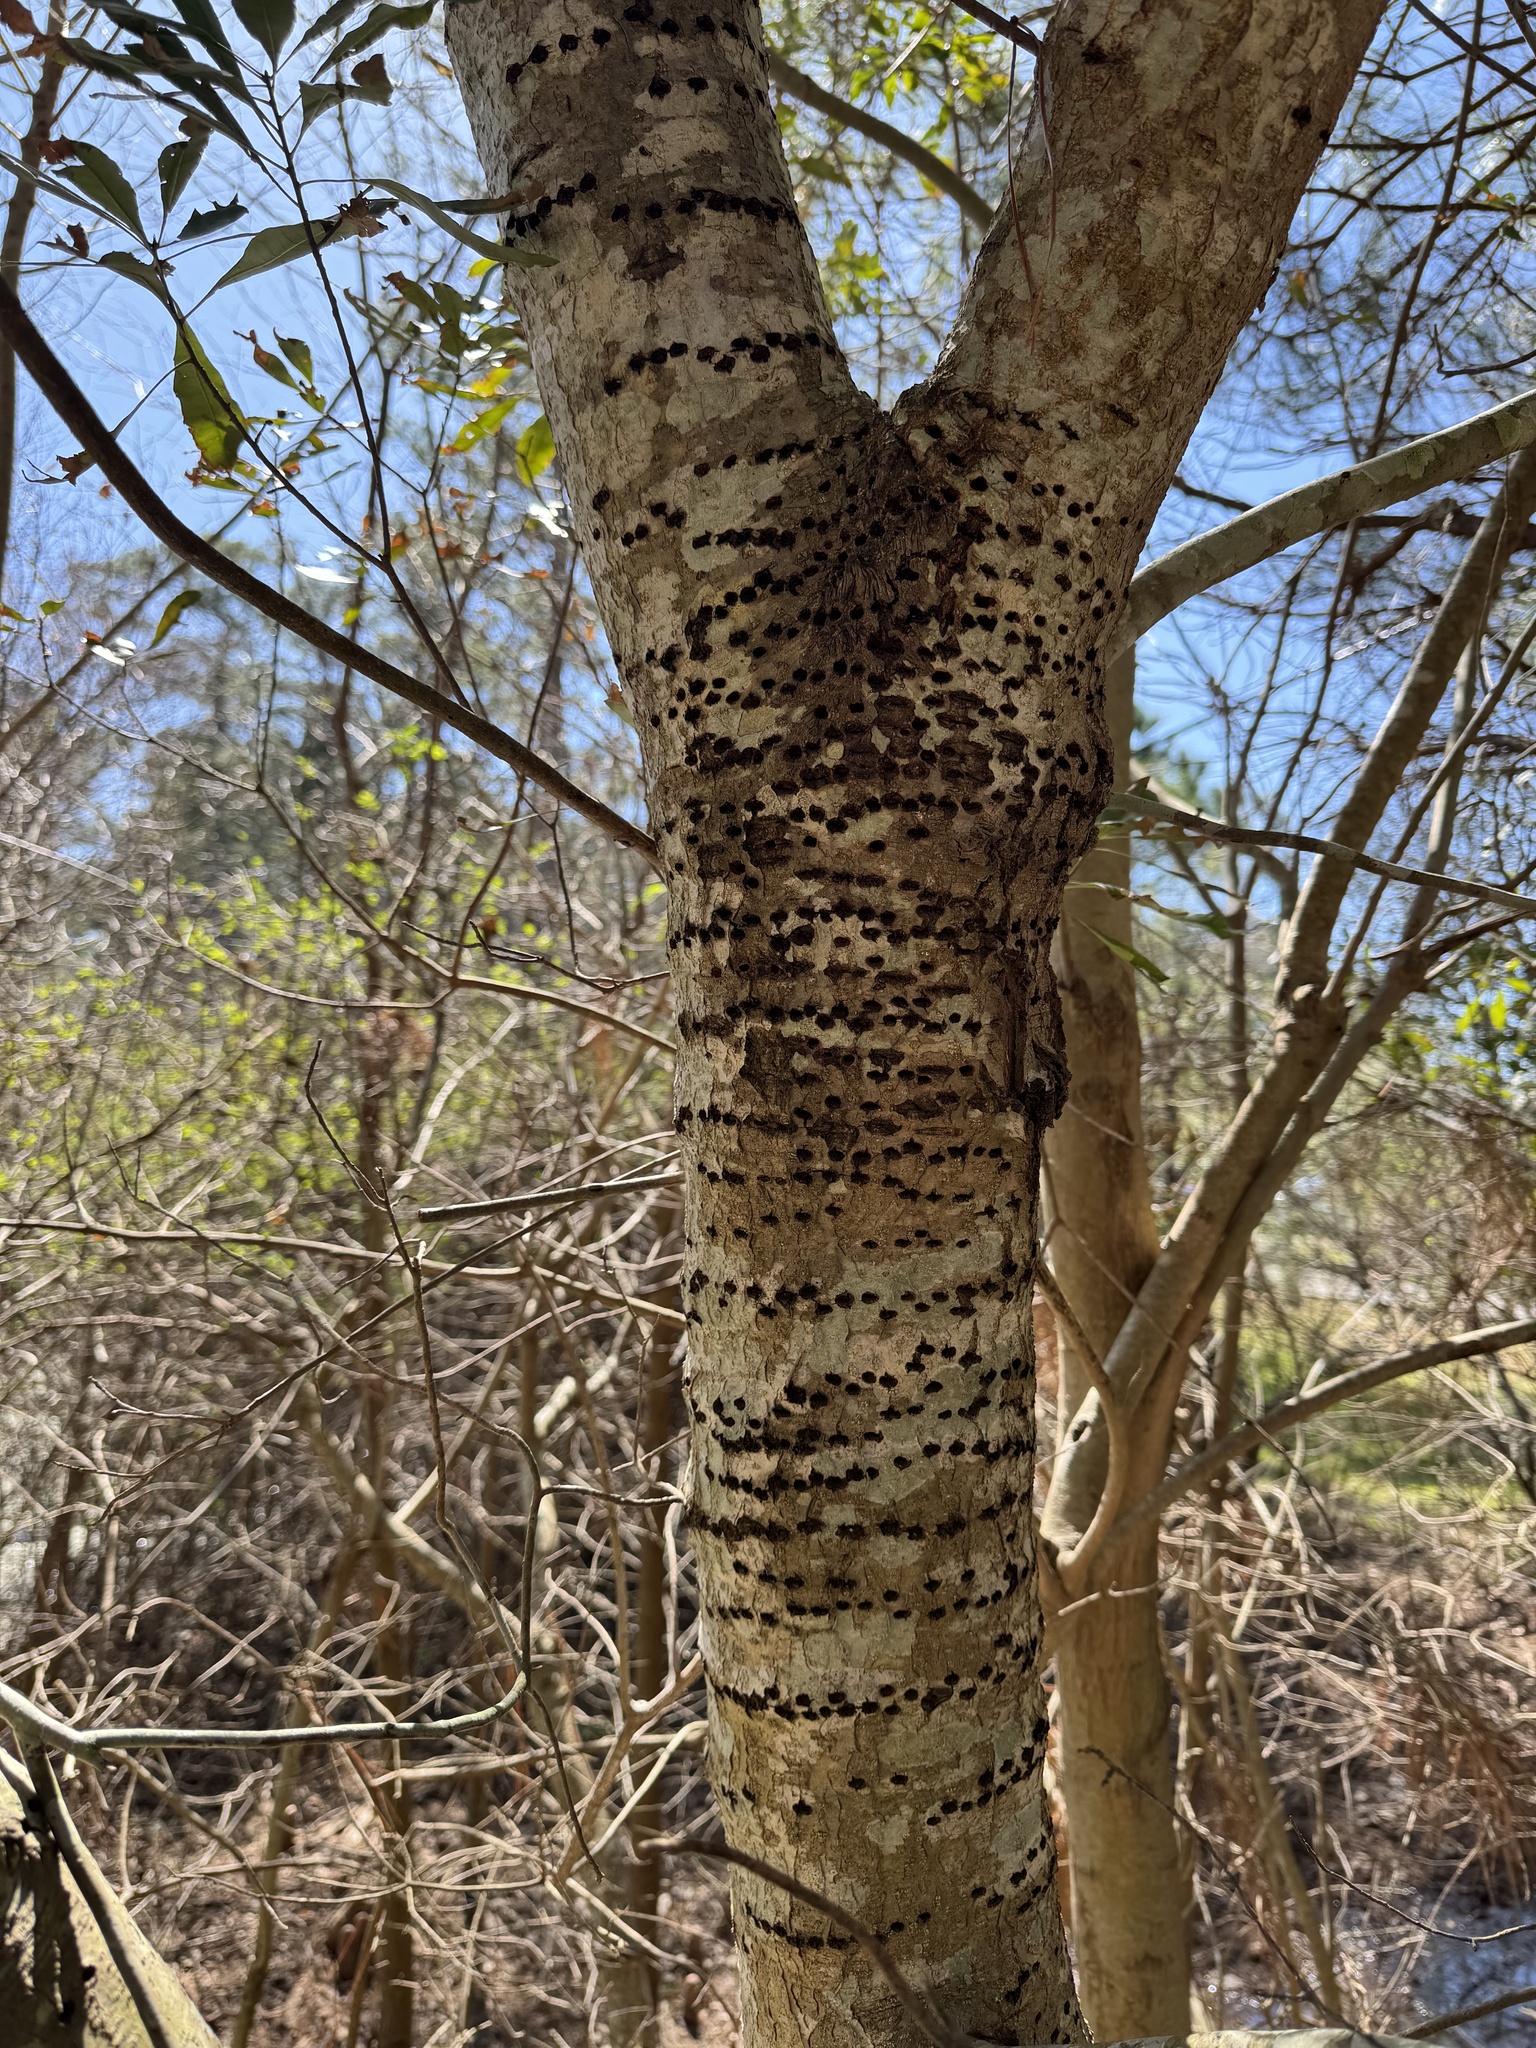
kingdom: Animalia
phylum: Chordata
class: Aves
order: Piciformes
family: Picidae
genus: Sphyrapicus
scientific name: Sphyrapicus varius
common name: Yellow-bellied sapsucker
